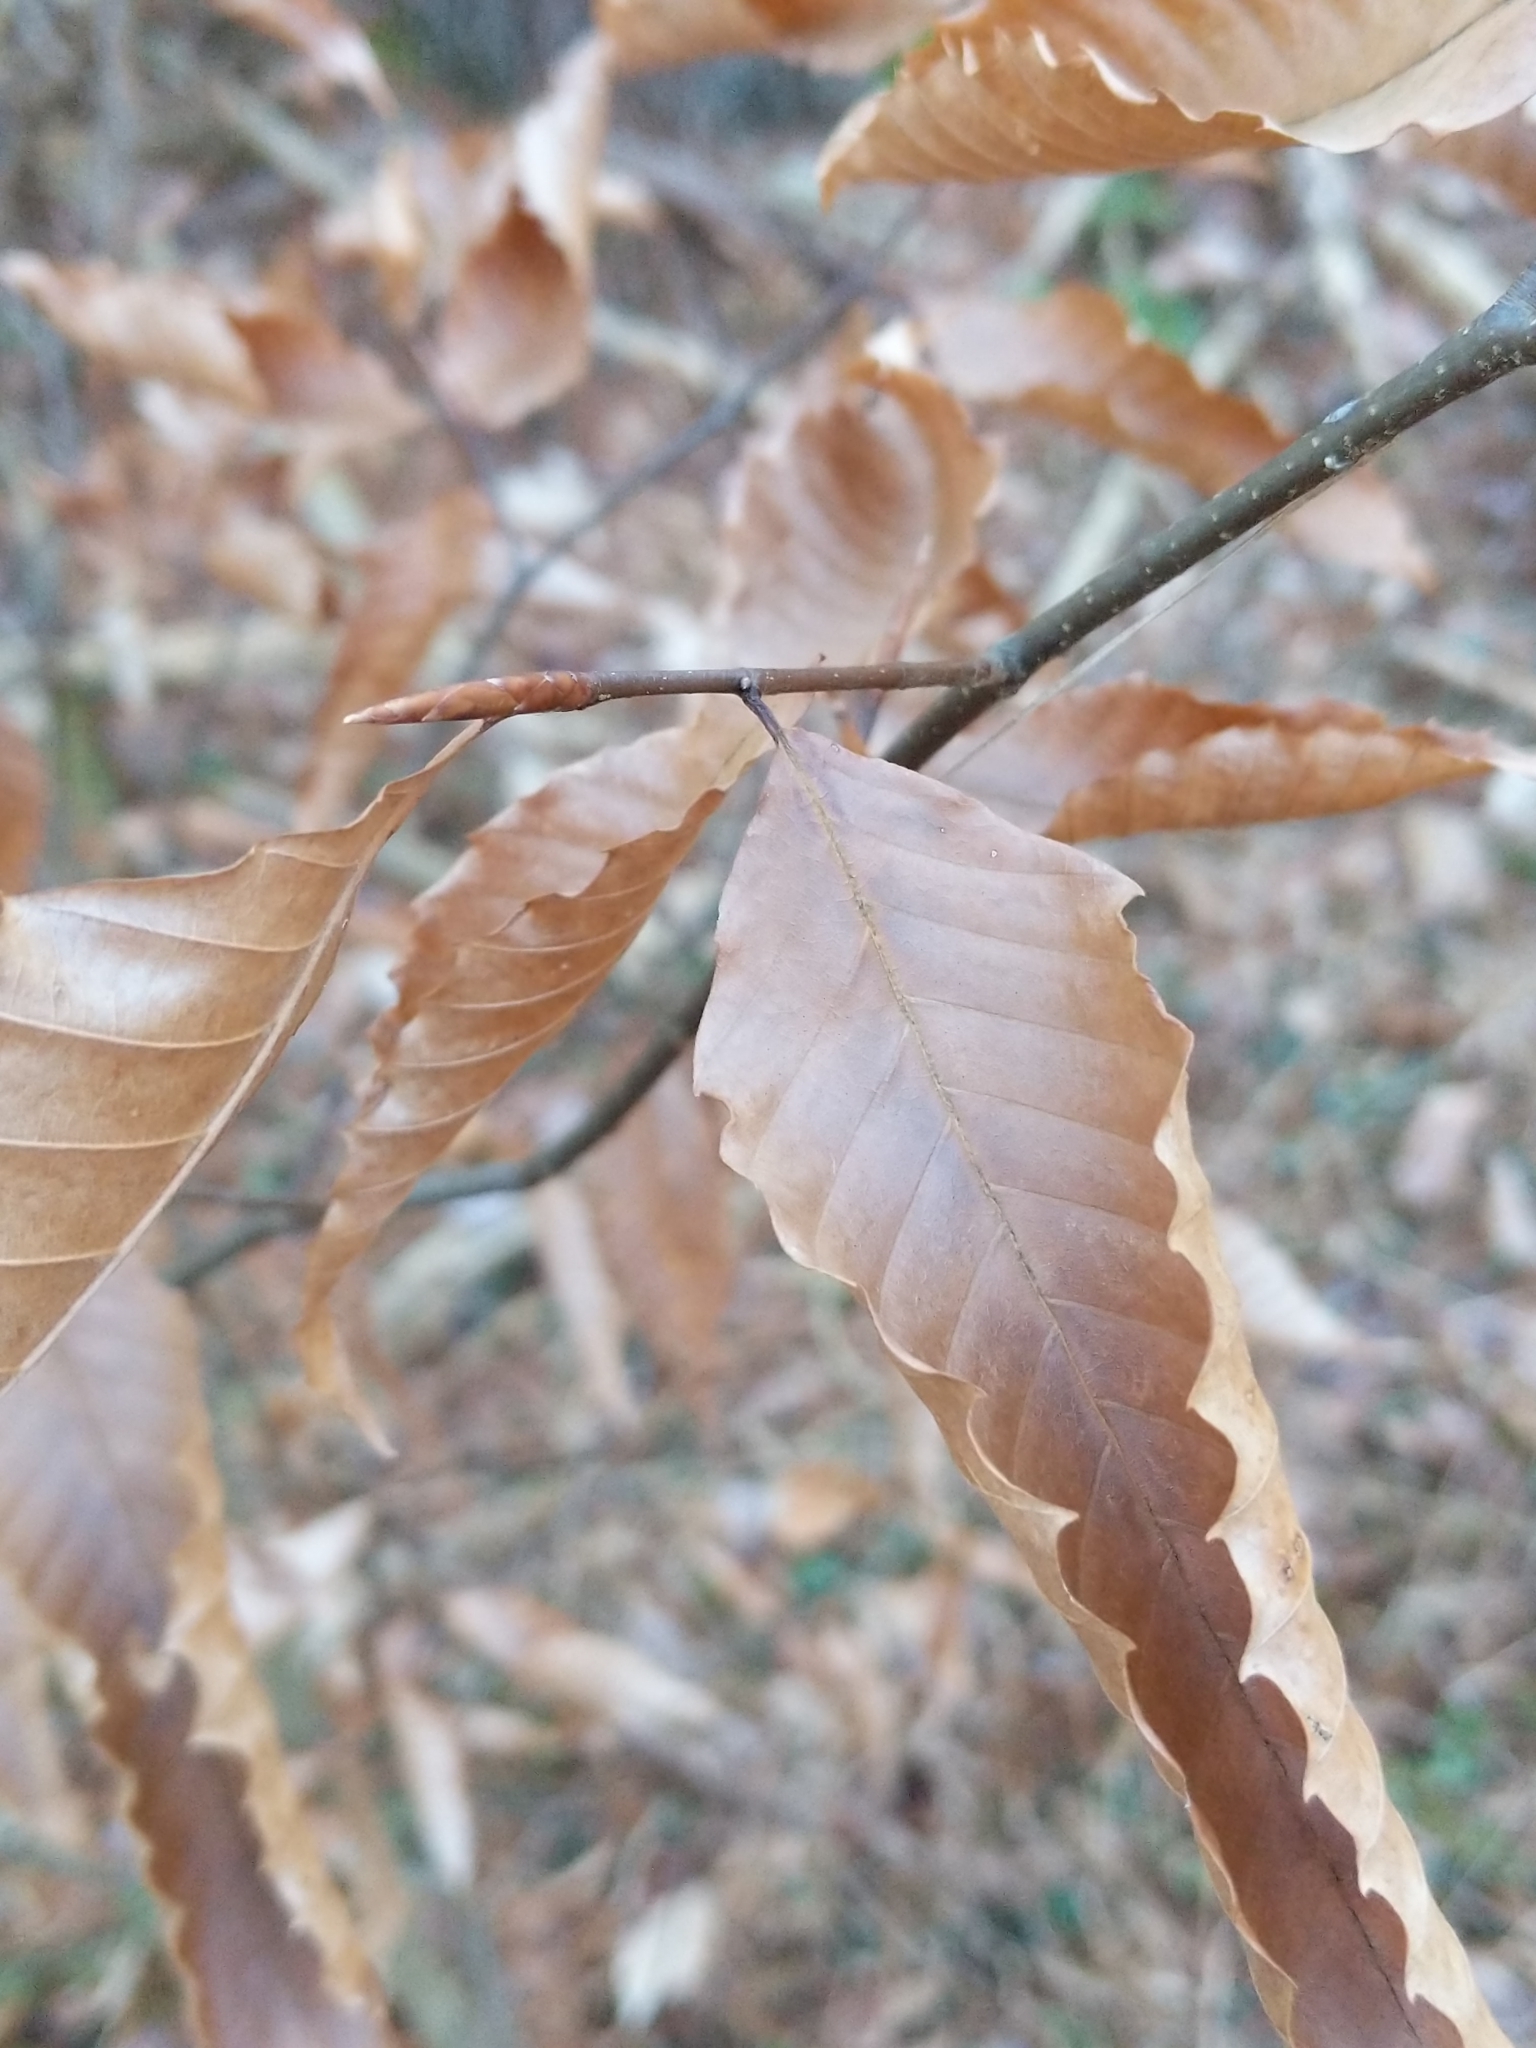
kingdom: Plantae
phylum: Tracheophyta
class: Magnoliopsida
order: Fagales
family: Fagaceae
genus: Fagus
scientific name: Fagus grandifolia
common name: American beech
